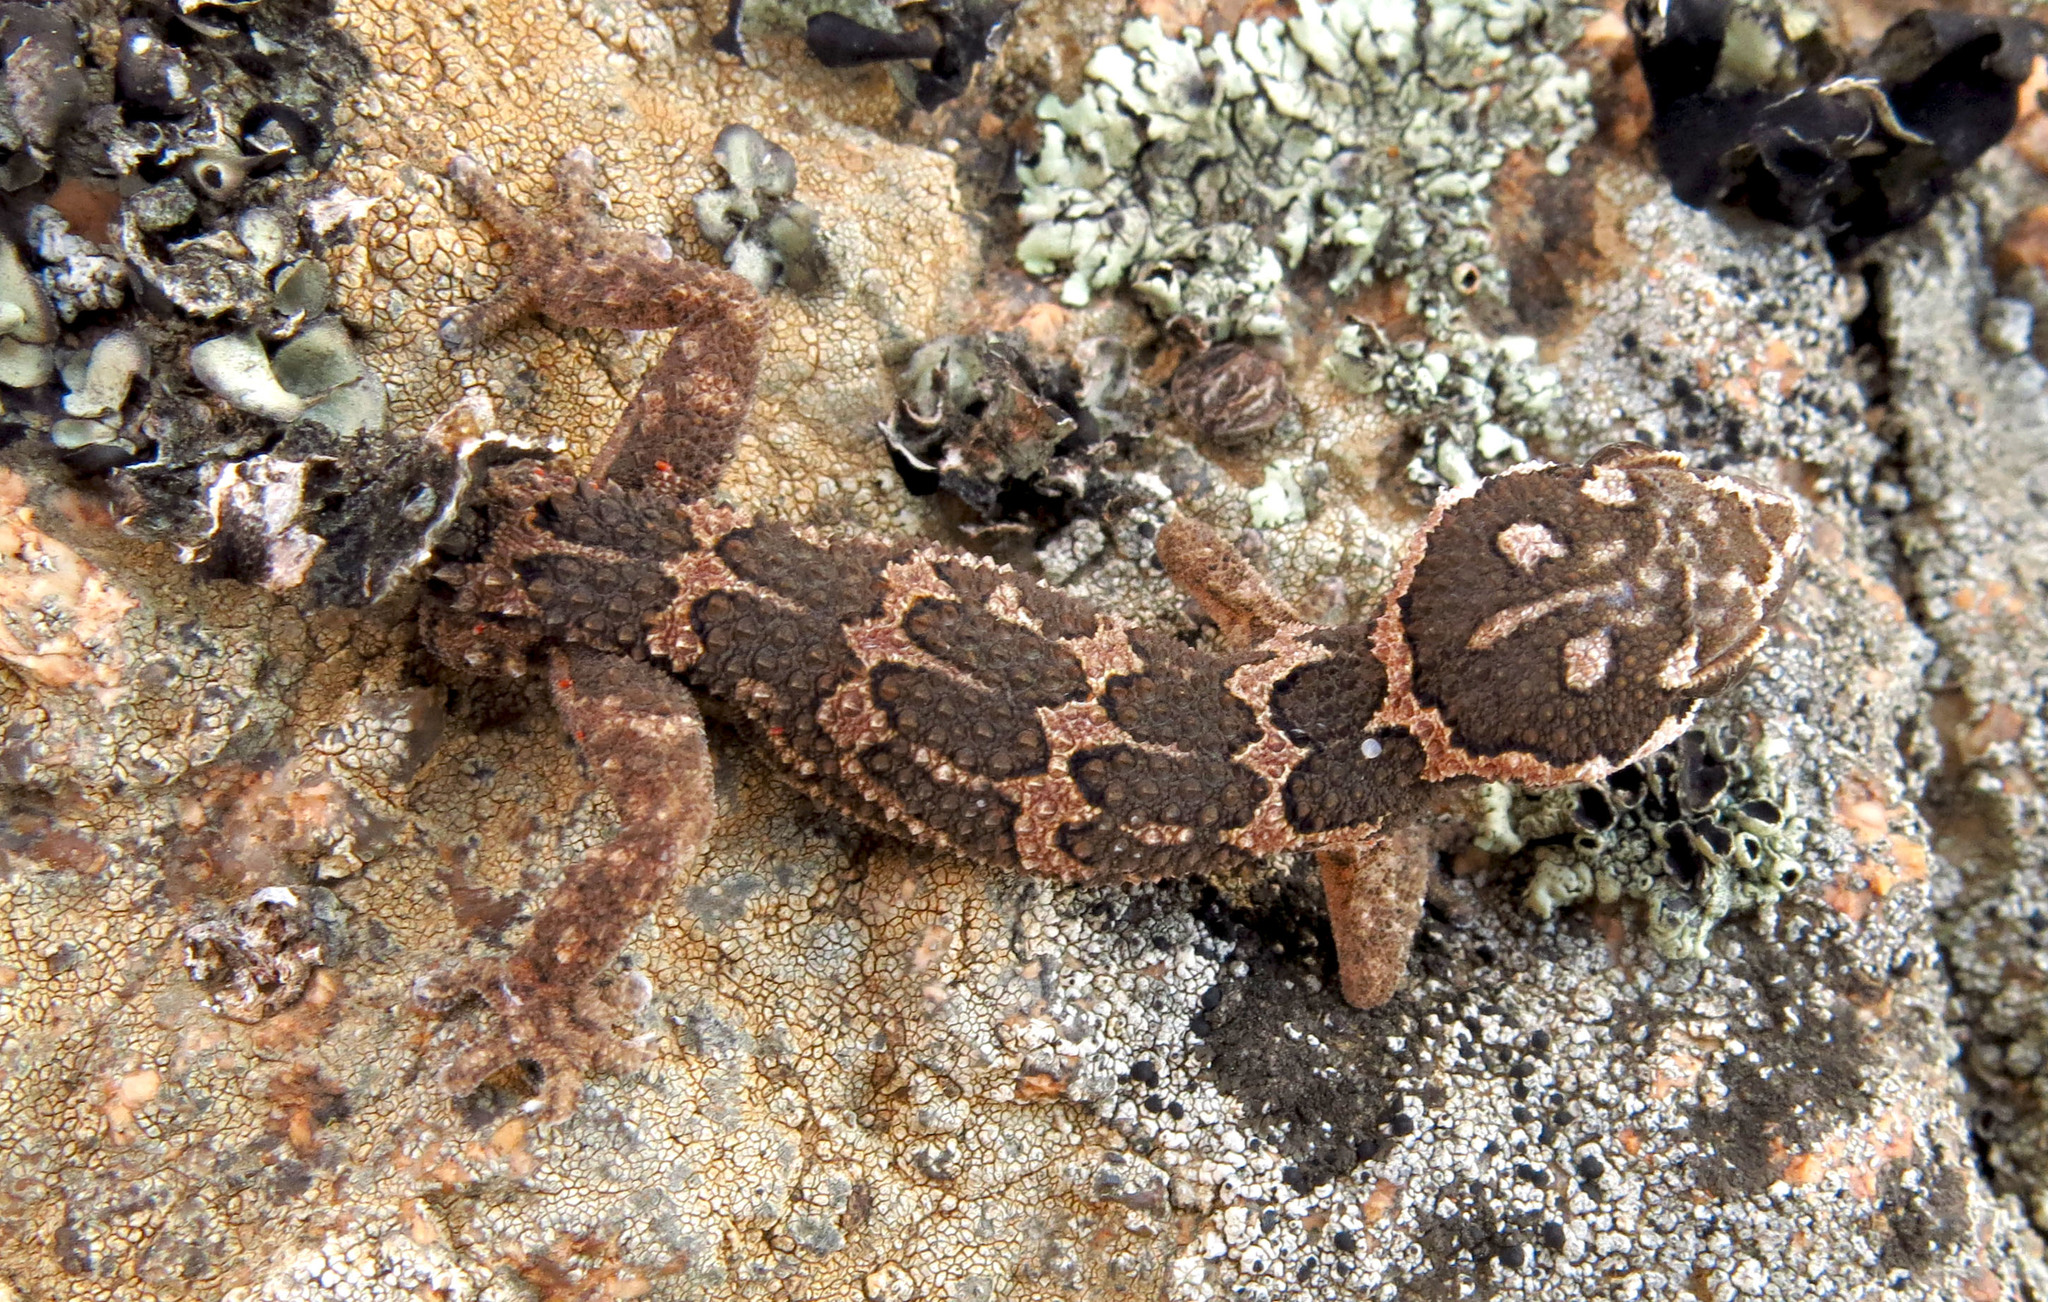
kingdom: Animalia
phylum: Chordata
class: Squamata
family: Gekkonidae
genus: Pachydactylus
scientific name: Pachydactylus barnardi
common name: Barnard's rough gecko
